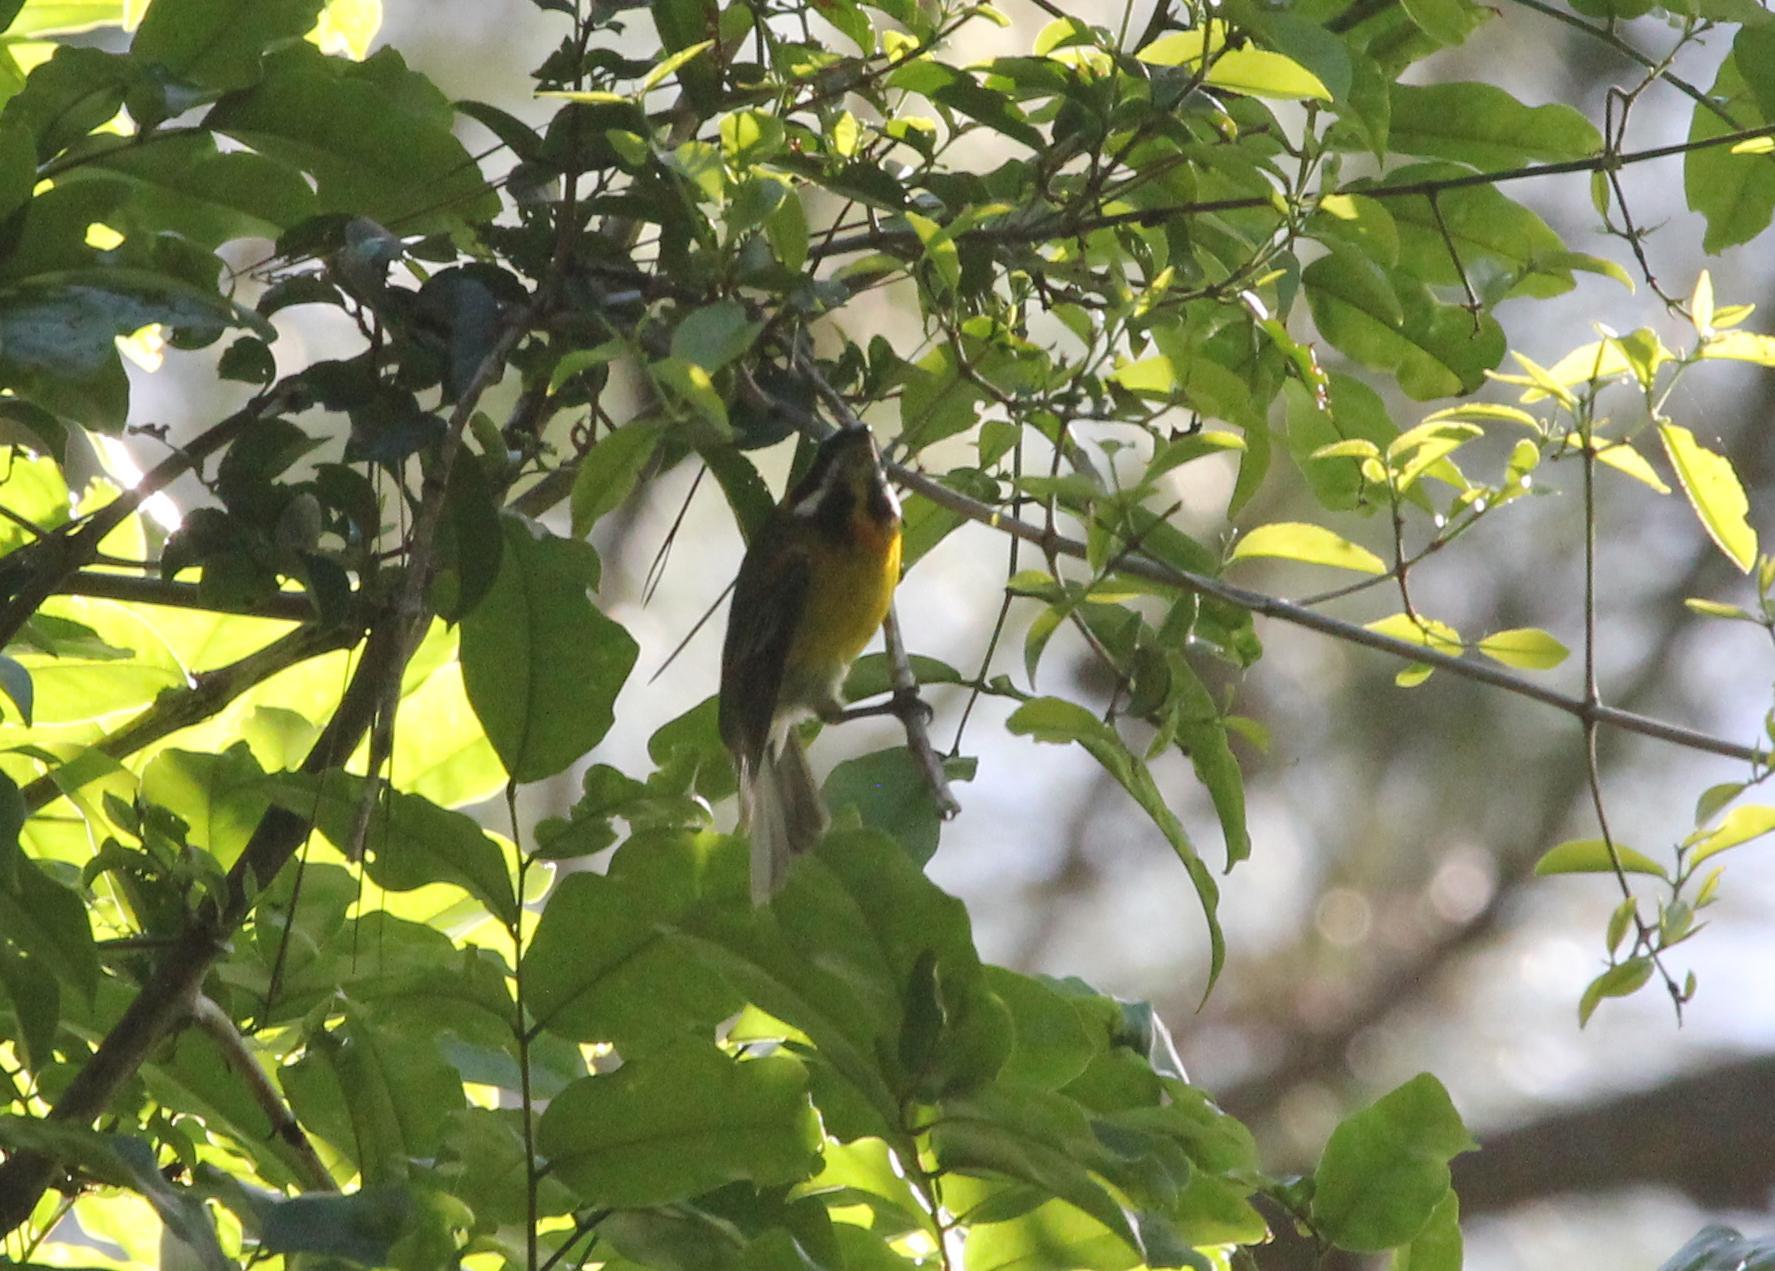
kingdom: Animalia
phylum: Chordata
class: Aves
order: Passeriformes
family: Spindalidae
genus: Spindalis
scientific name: Spindalis portoricensis
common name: Puerto rican spindalis
